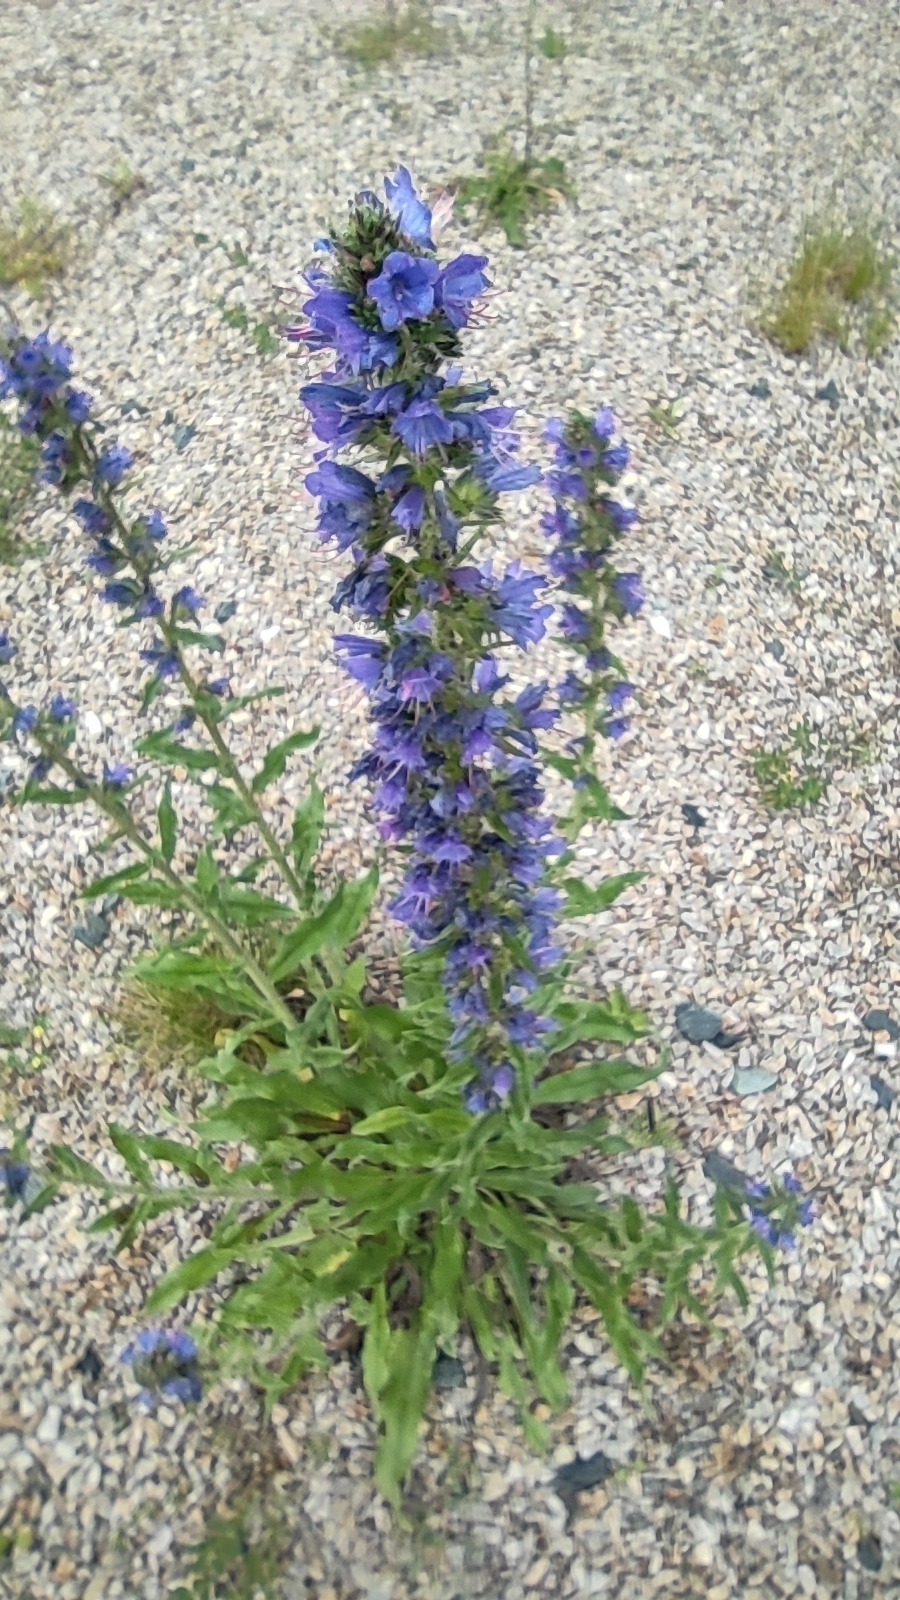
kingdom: Plantae
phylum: Tracheophyta
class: Magnoliopsida
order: Boraginales
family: Boraginaceae
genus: Echium
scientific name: Echium vulgare
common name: Common viper's bugloss
